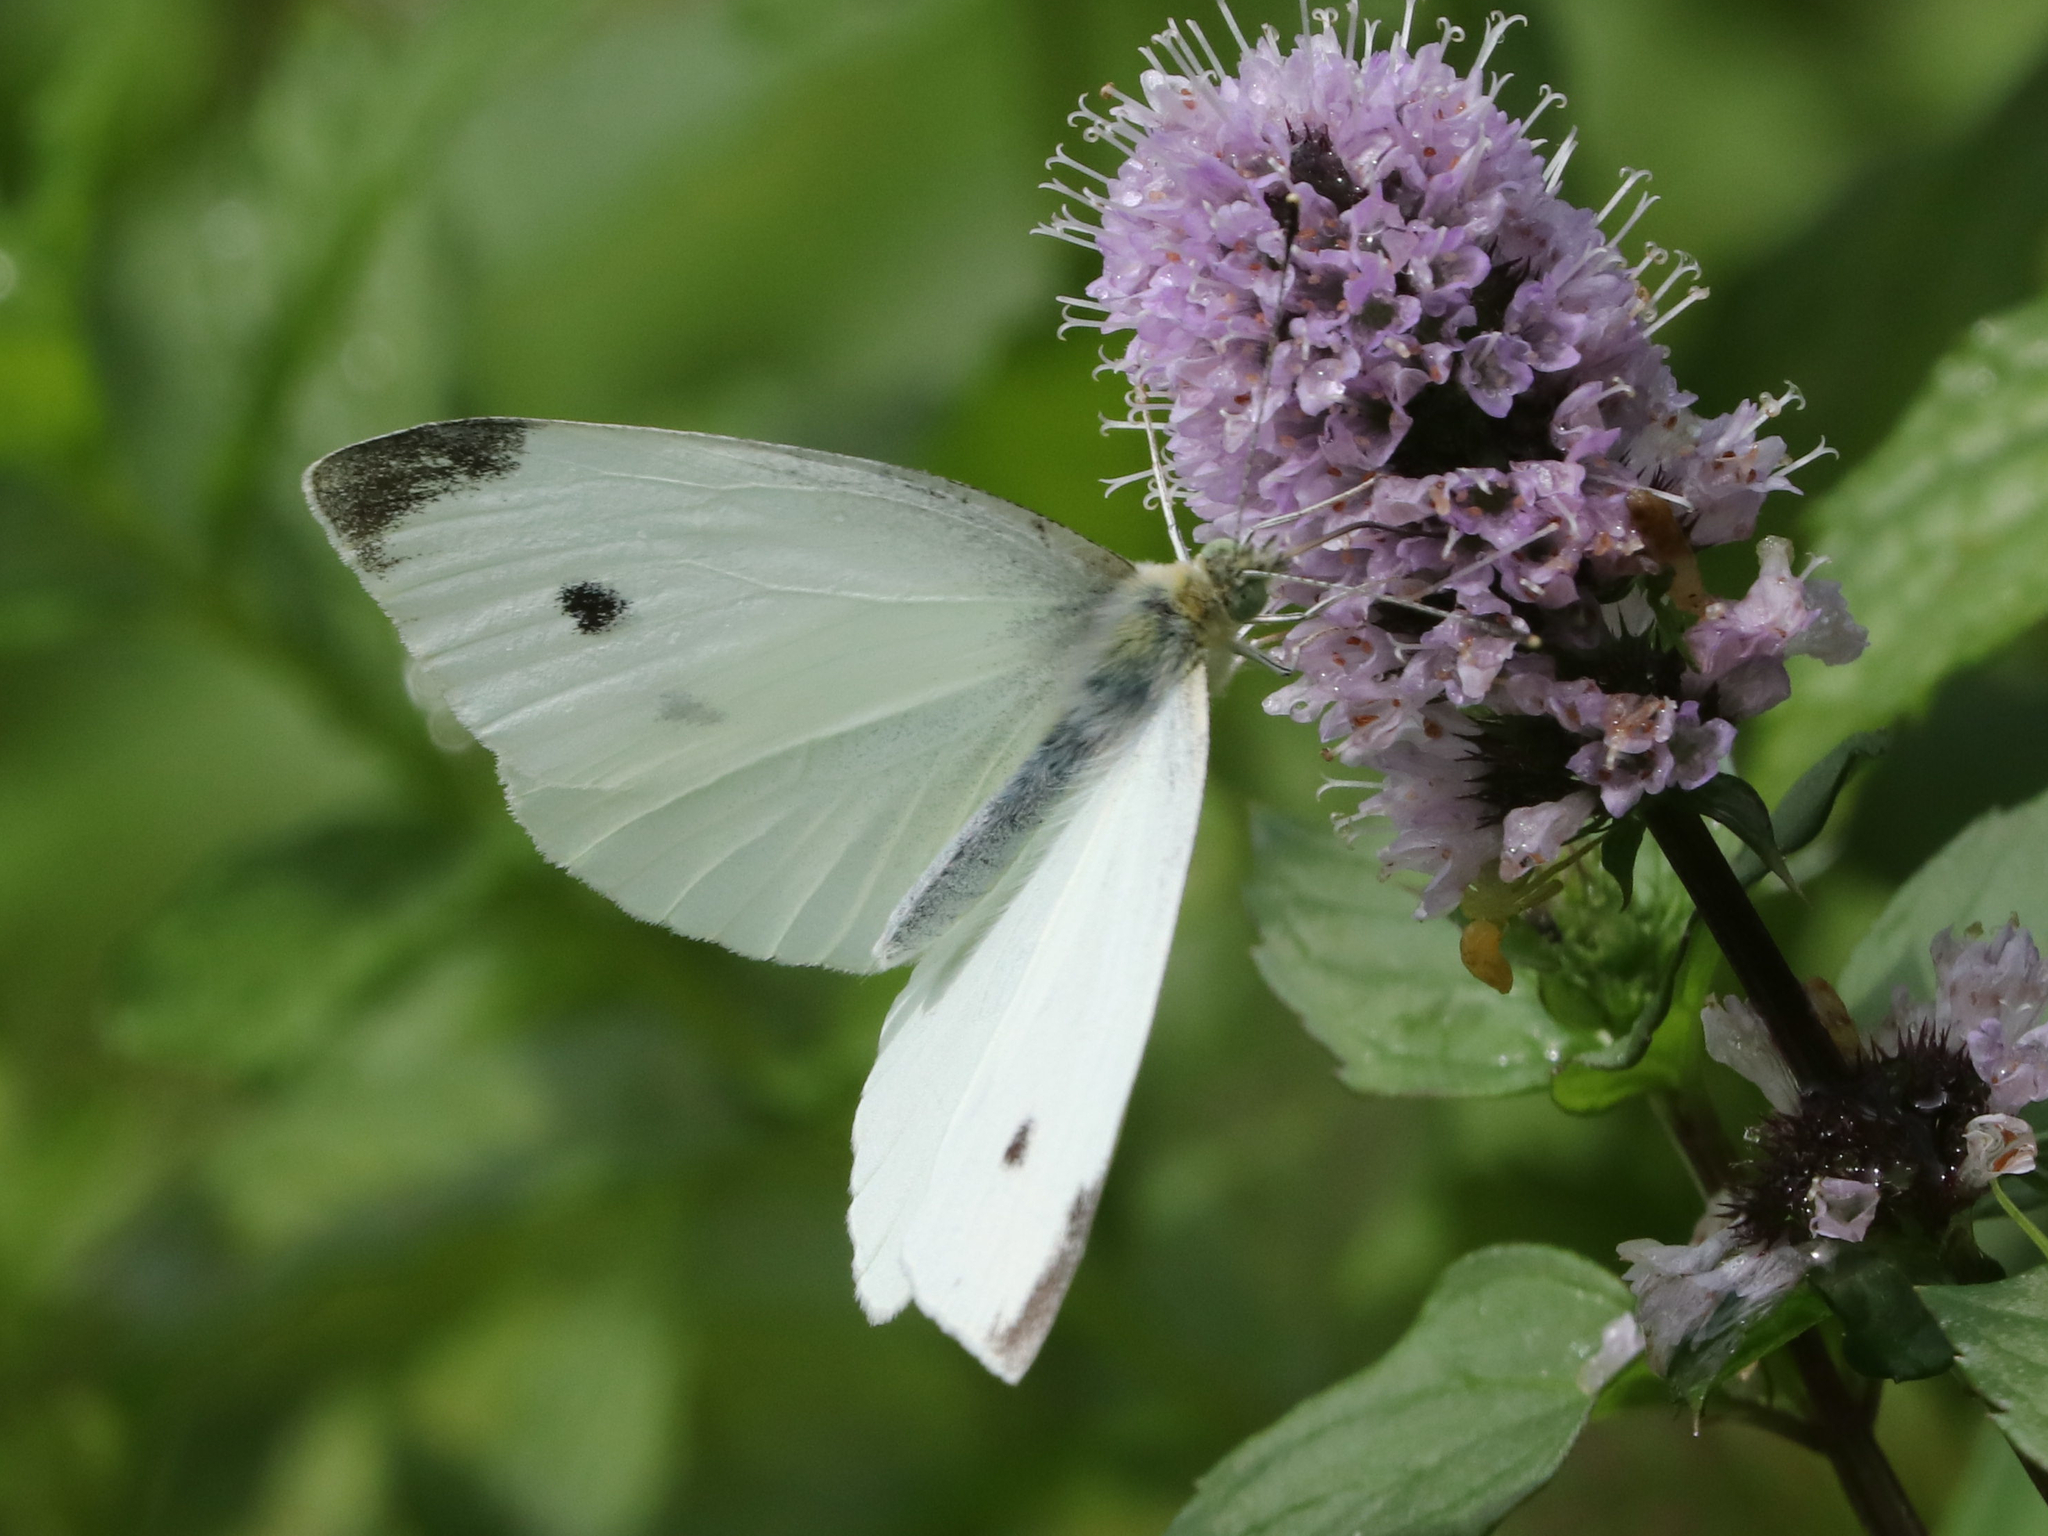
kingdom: Animalia
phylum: Arthropoda
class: Insecta
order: Lepidoptera
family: Pieridae
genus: Pieris
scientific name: Pieris rapae
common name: Small white
